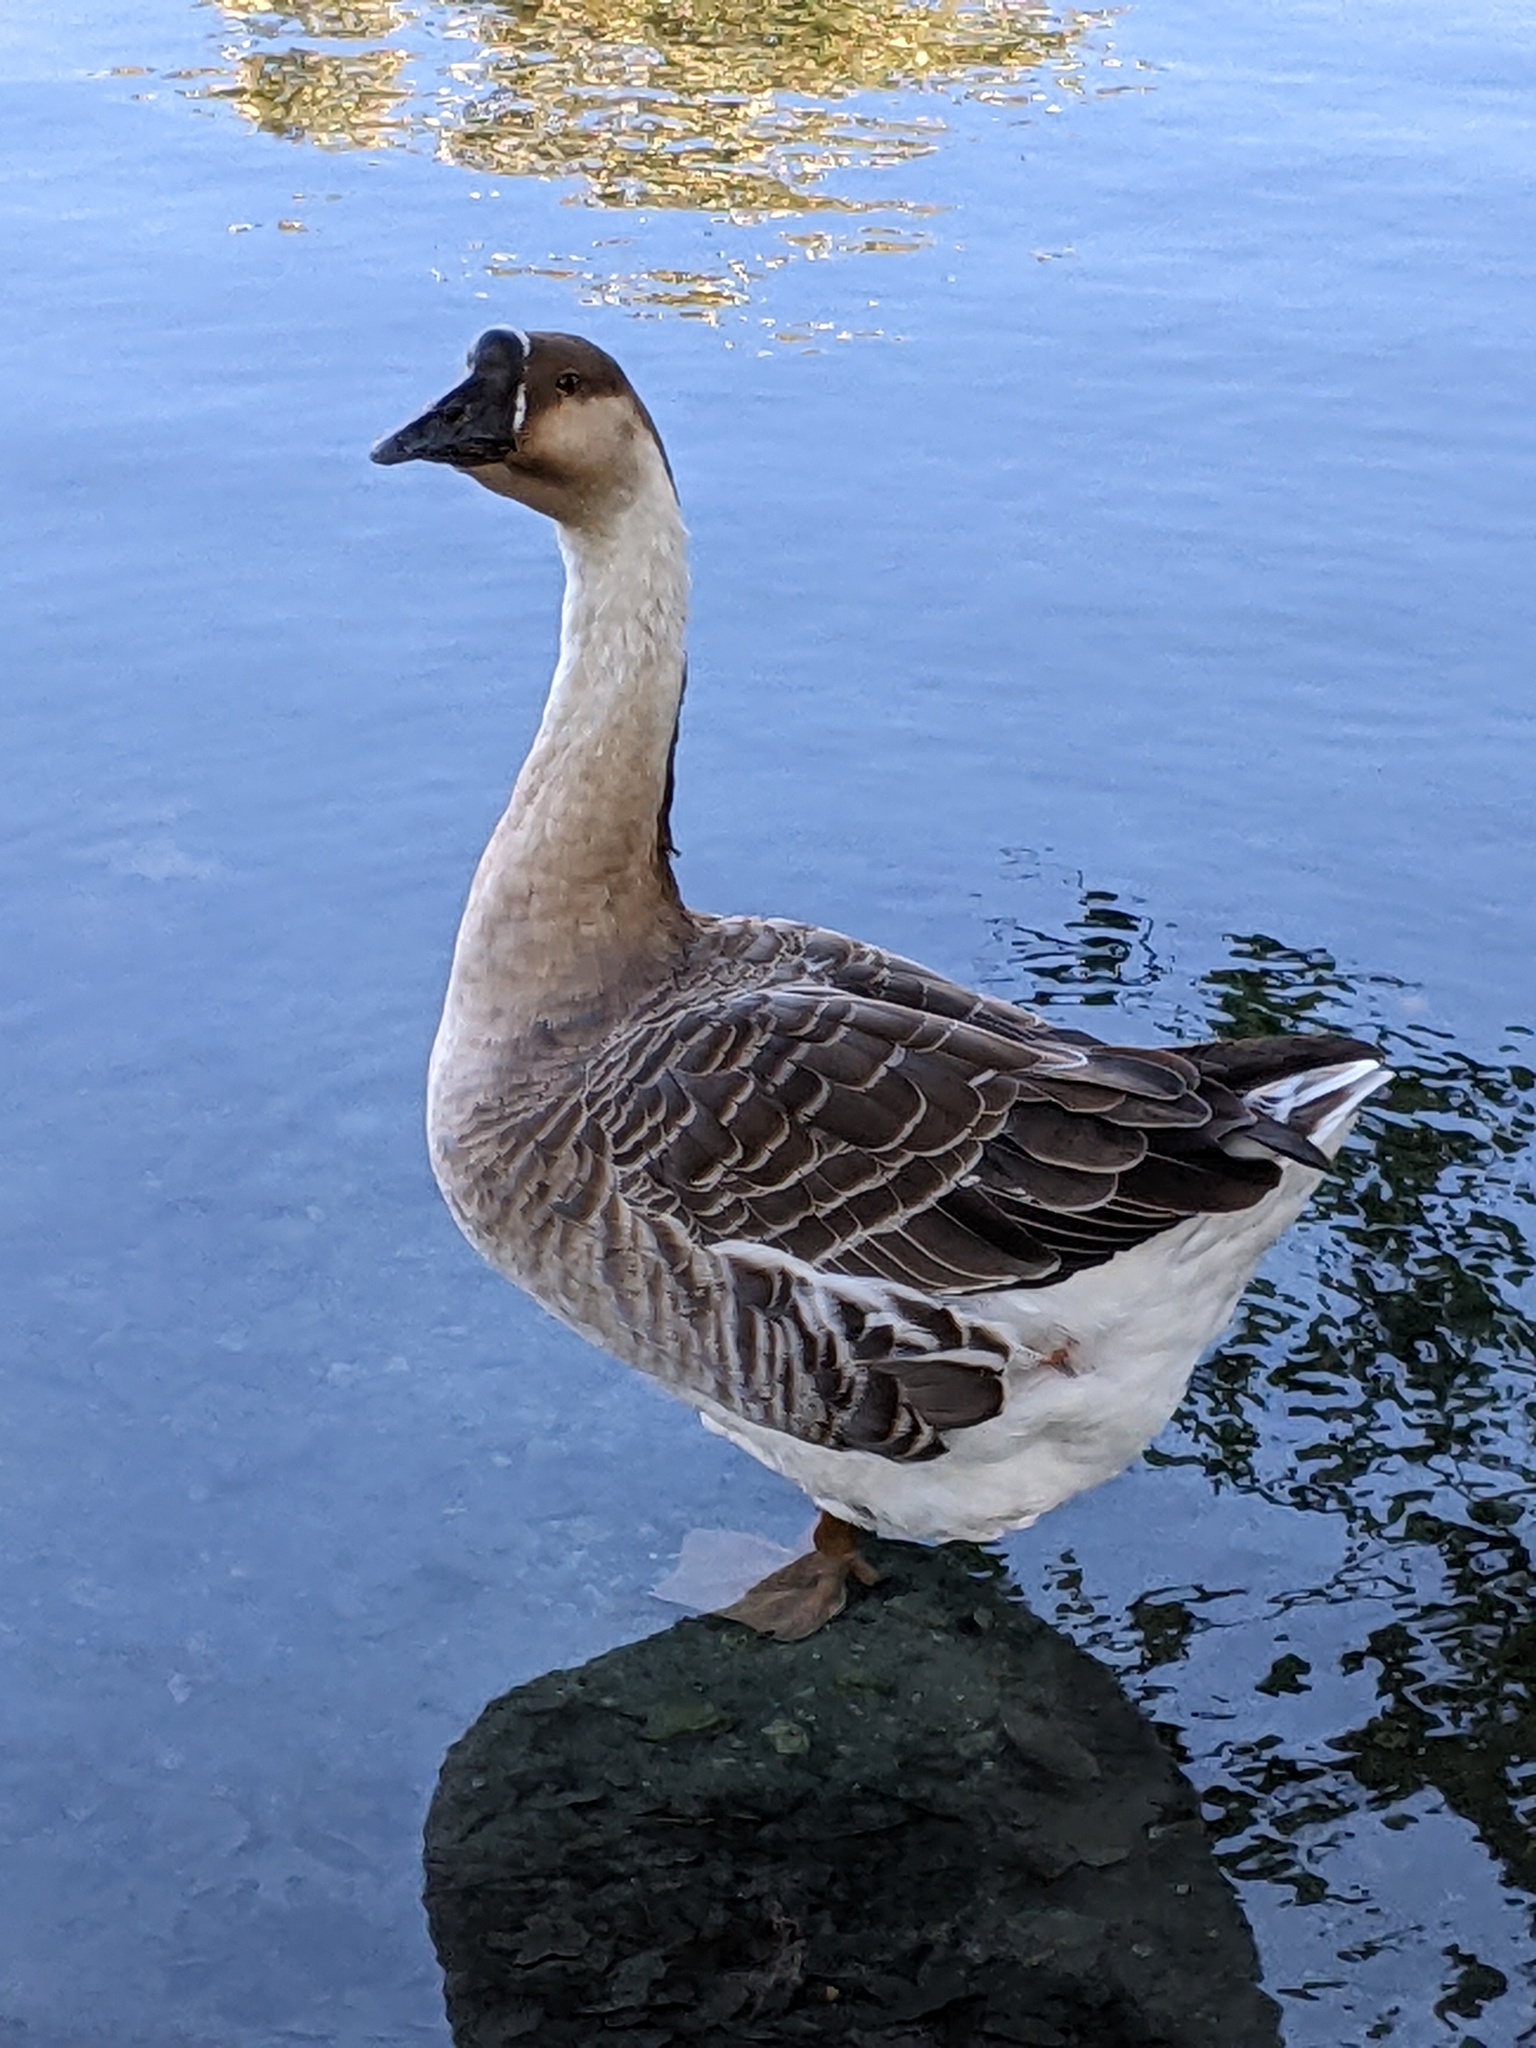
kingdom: Animalia
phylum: Chordata
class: Aves
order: Anseriformes
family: Anatidae
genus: Anser
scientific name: Anser cygnoides
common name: Swan goose
